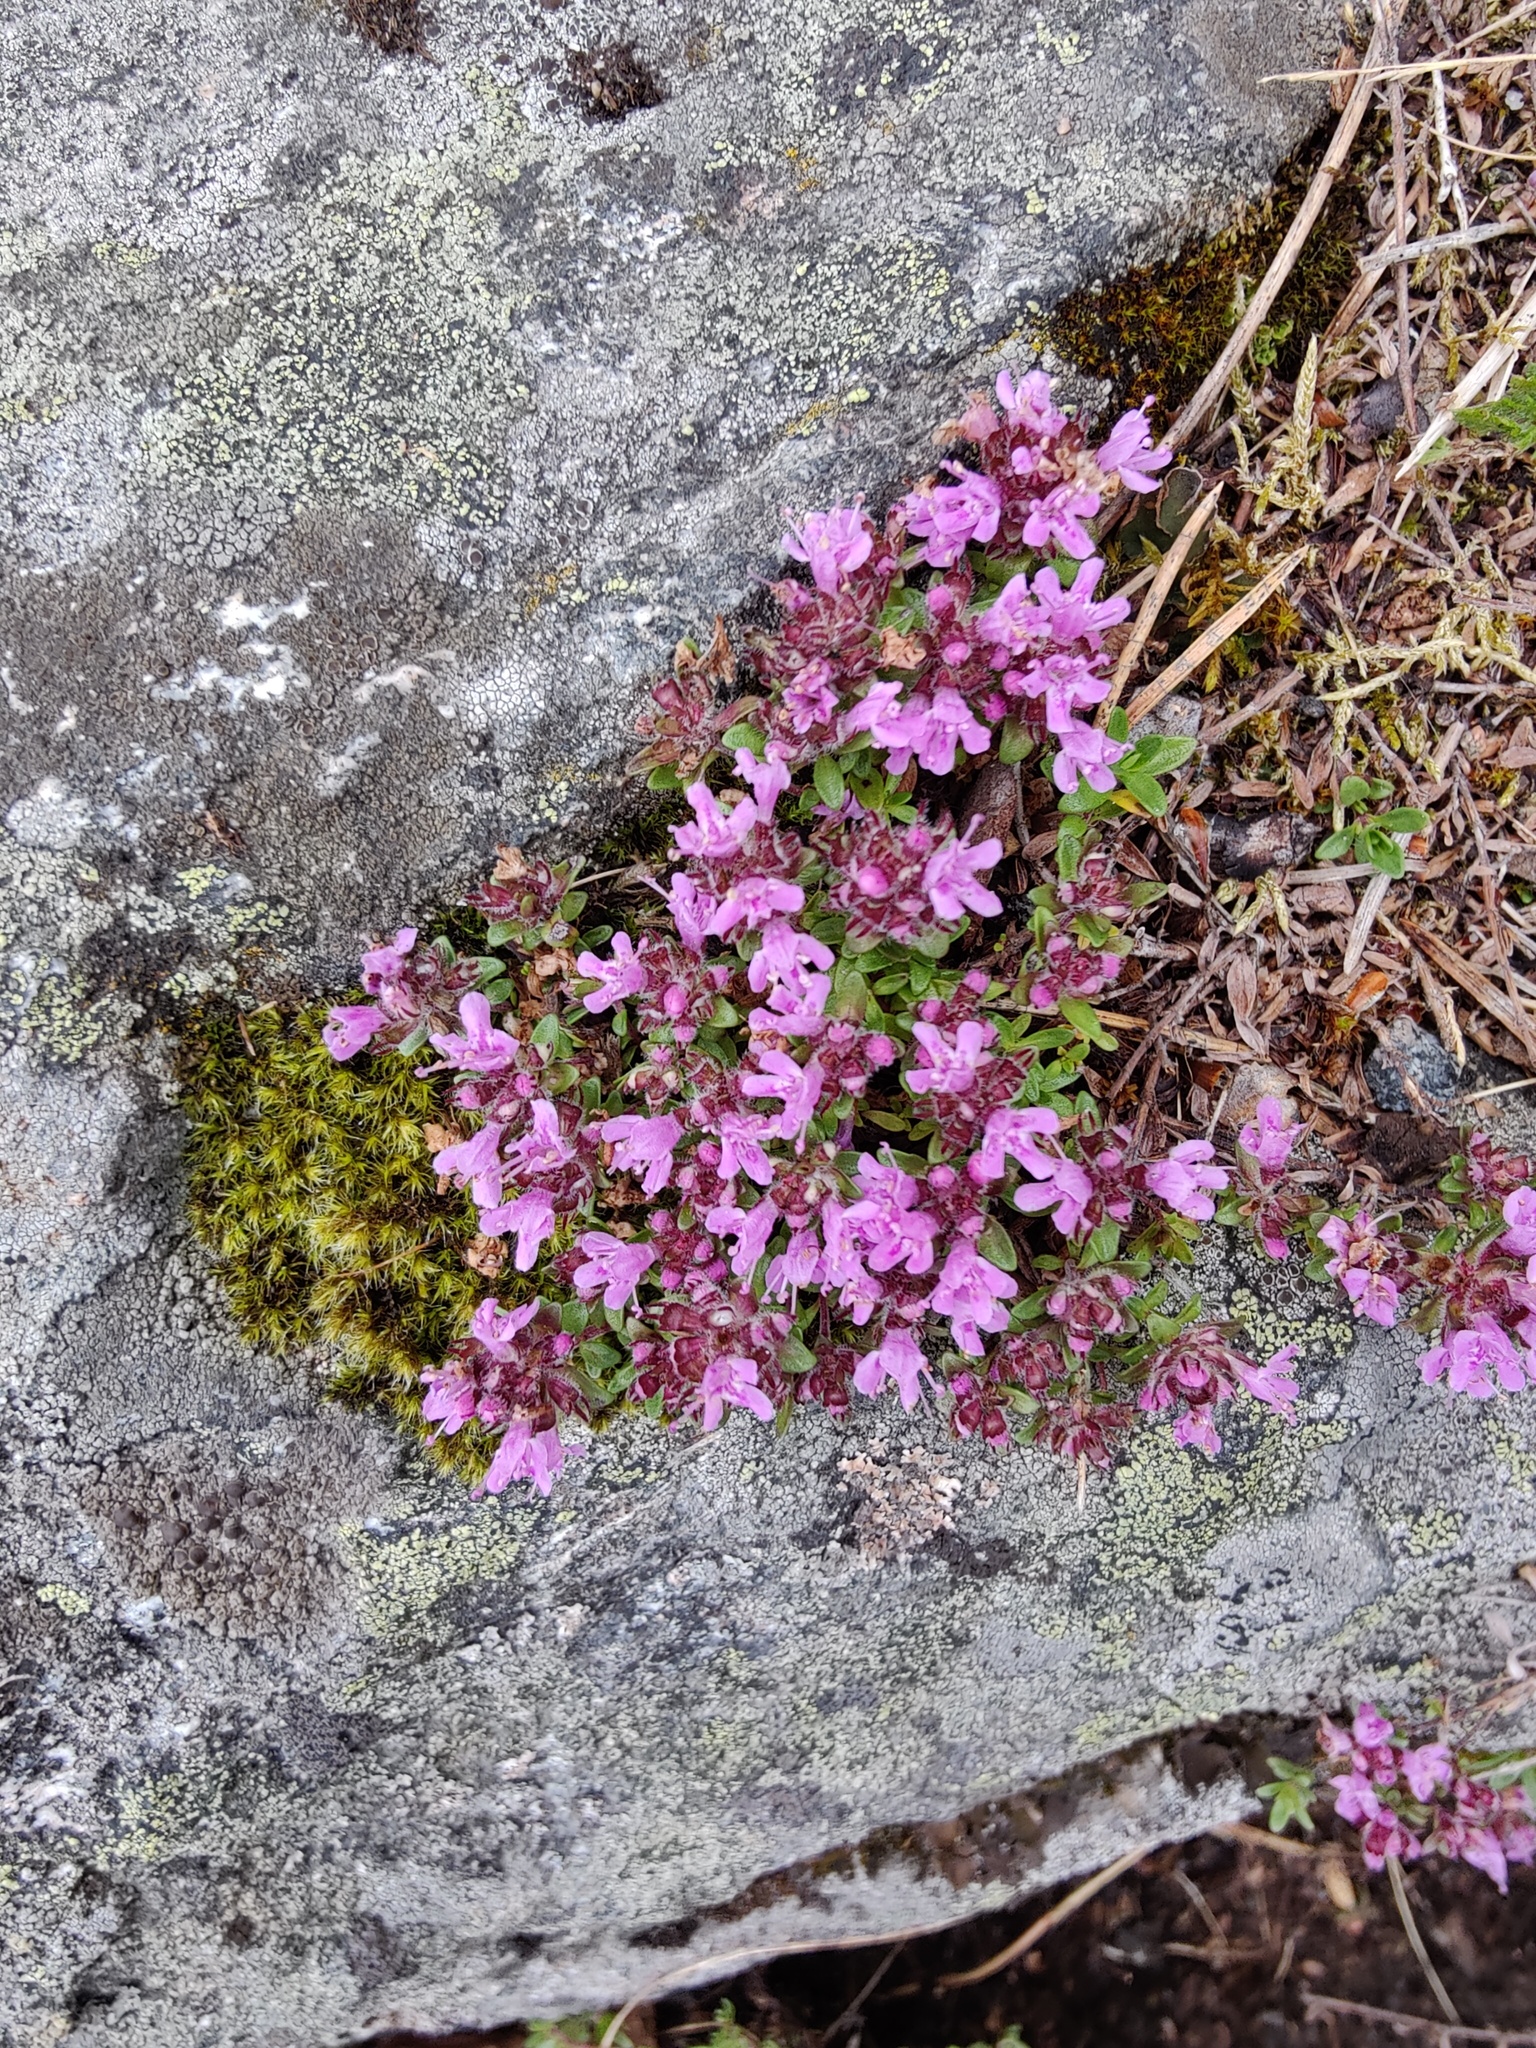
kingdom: Plantae
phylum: Tracheophyta
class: Magnoliopsida
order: Lamiales
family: Lamiaceae
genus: Thymus
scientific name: Thymus serpyllum
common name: Breckland thyme
